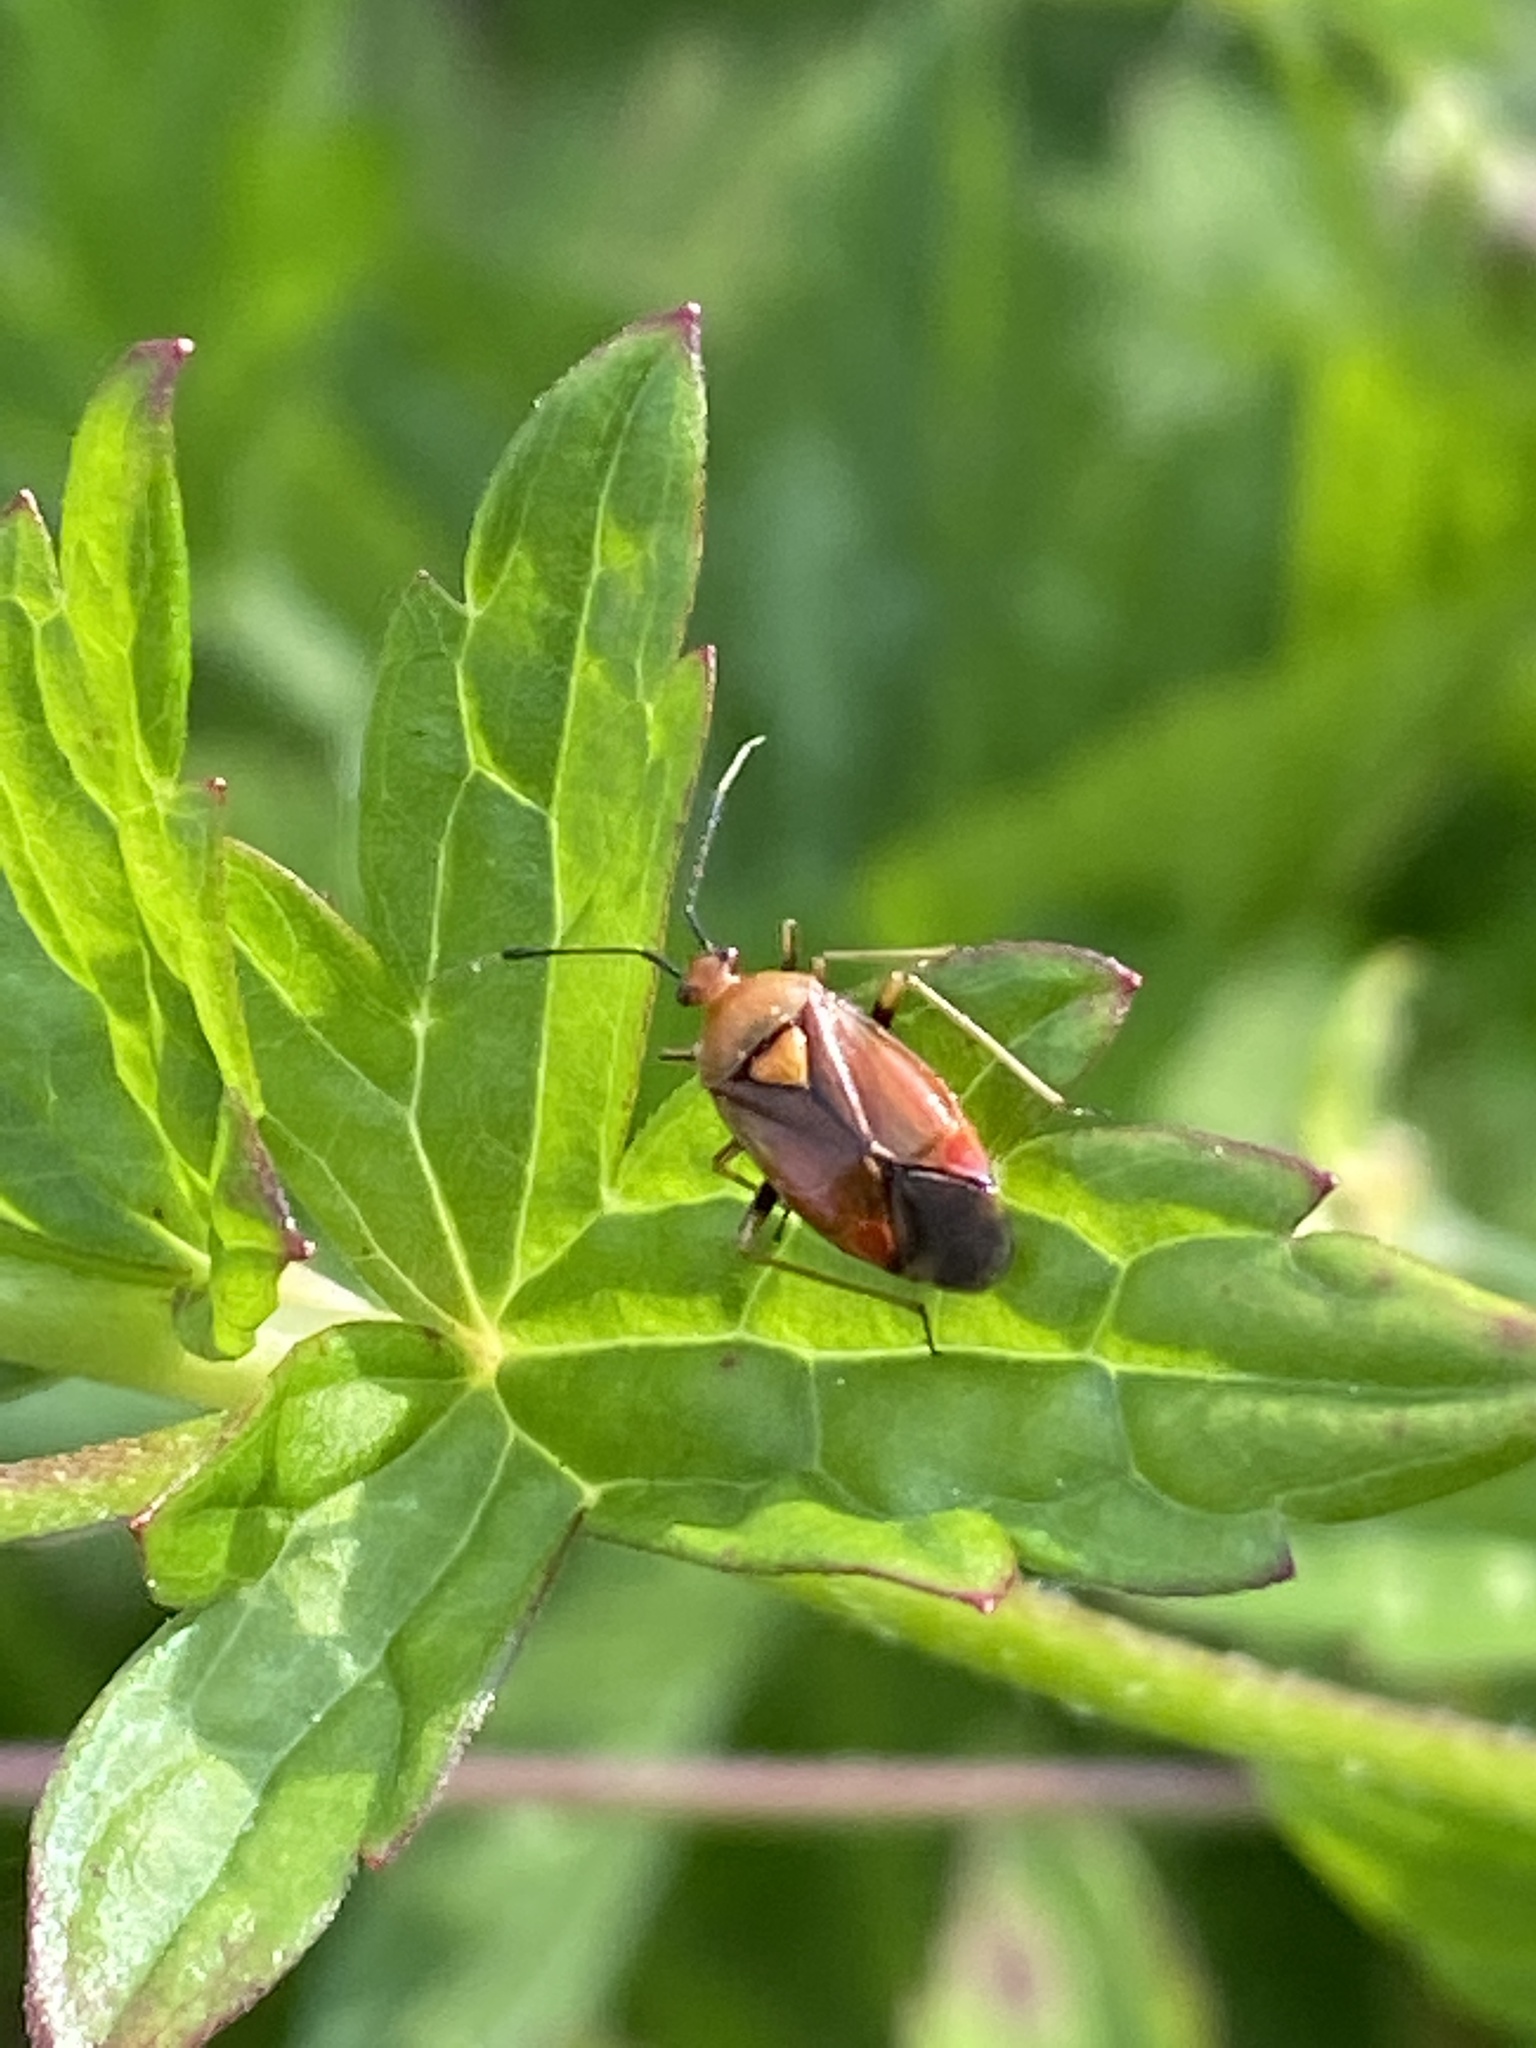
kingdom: Animalia
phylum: Arthropoda
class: Insecta
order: Hemiptera
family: Miridae
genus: Deraeocoris
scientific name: Deraeocoris ruber
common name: Plant bug
